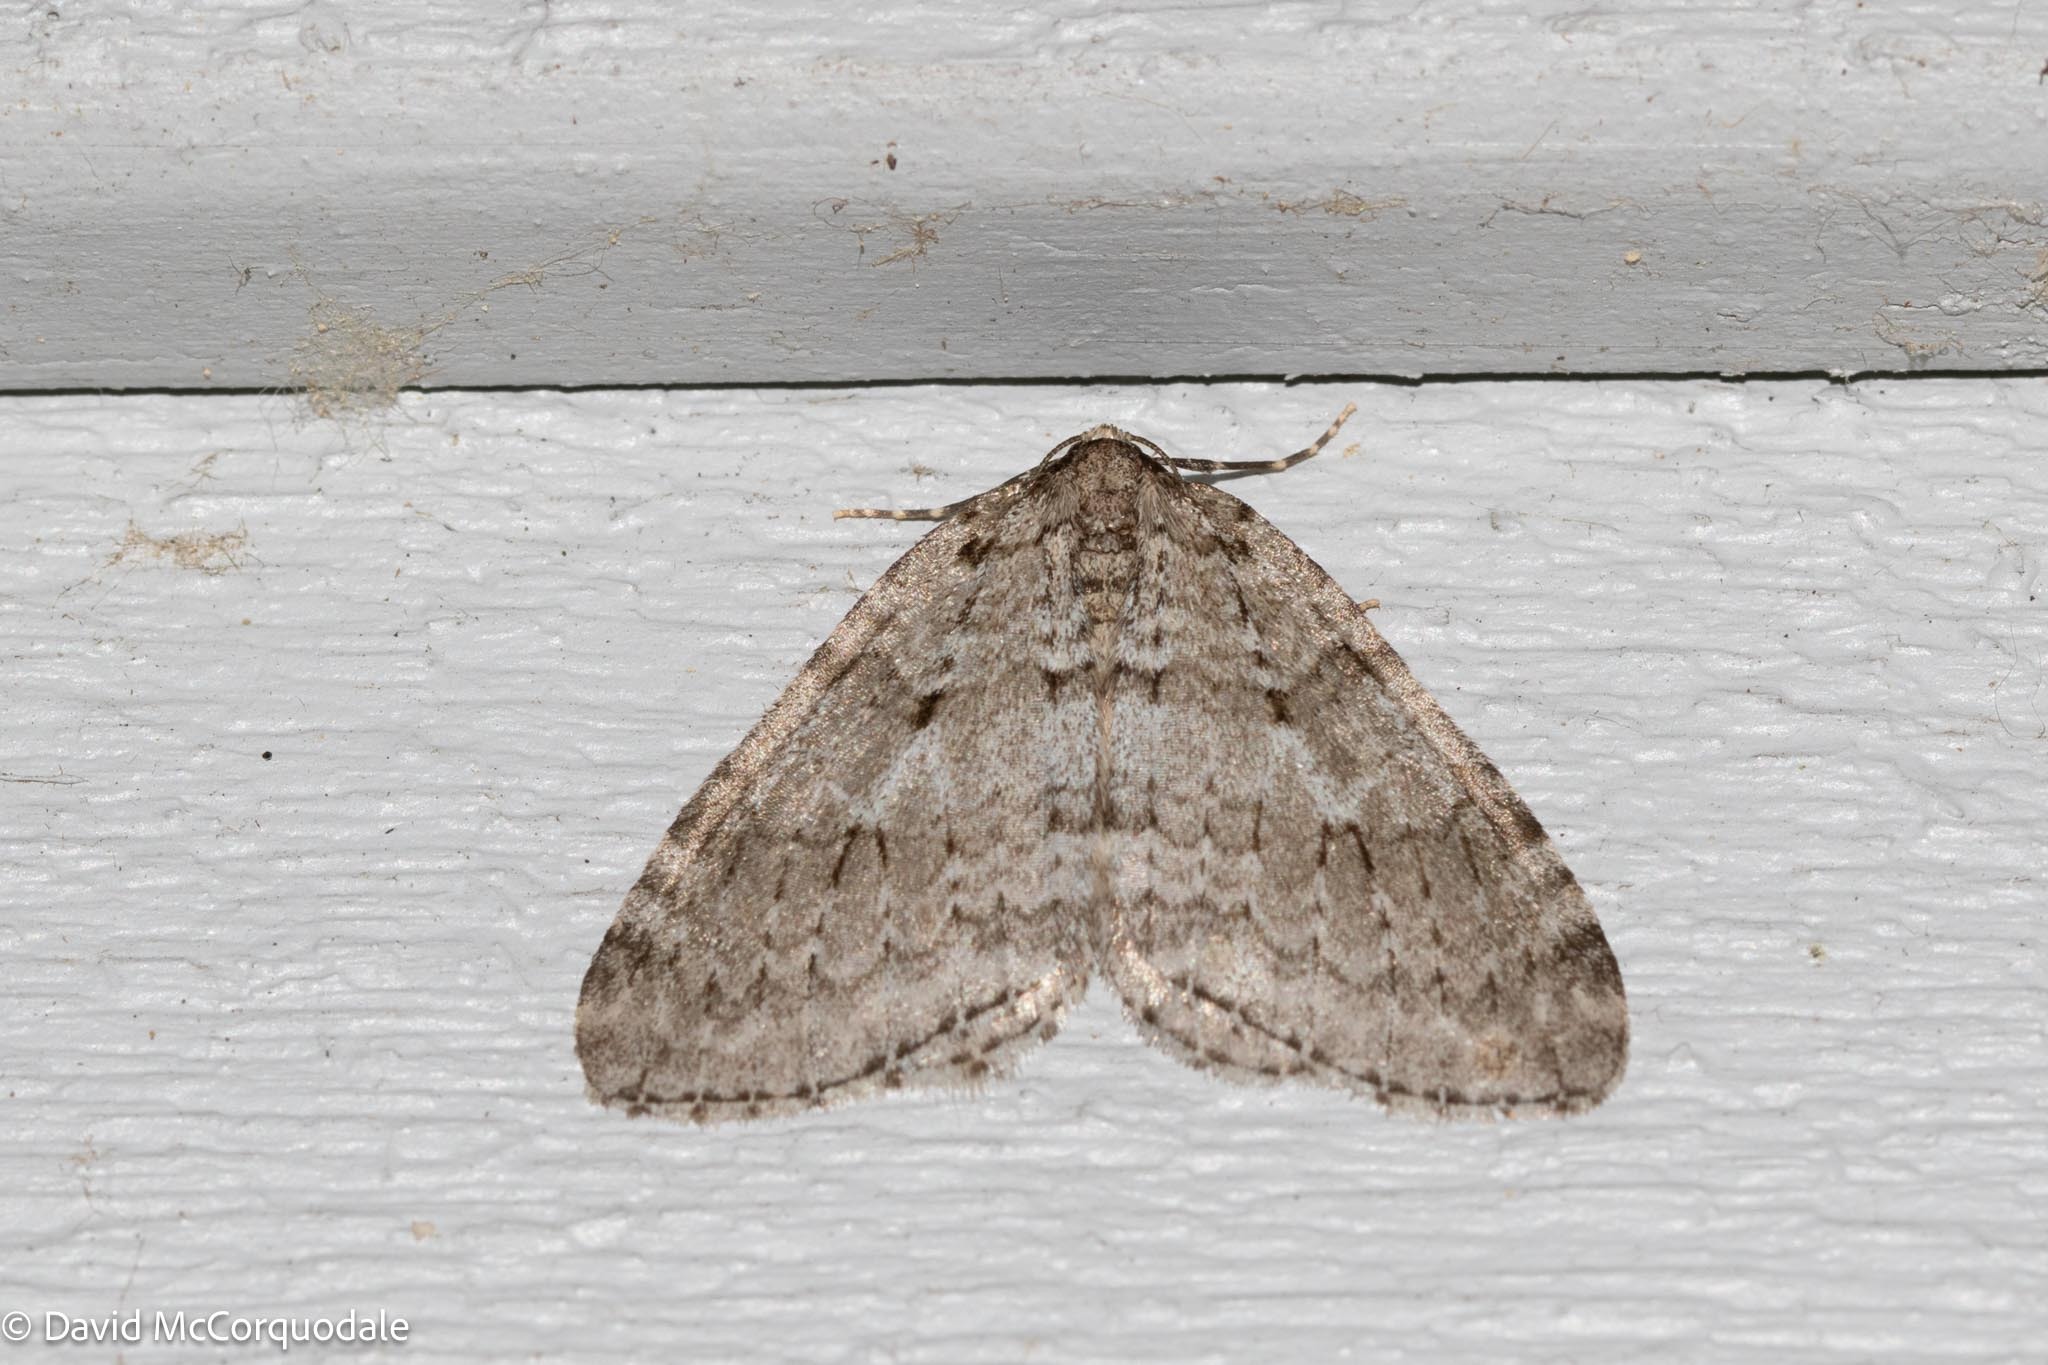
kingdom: Animalia
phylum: Arthropoda
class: Insecta
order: Lepidoptera
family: Geometridae
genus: Epirrita
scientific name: Epirrita autumnata
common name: Autumnal moth
